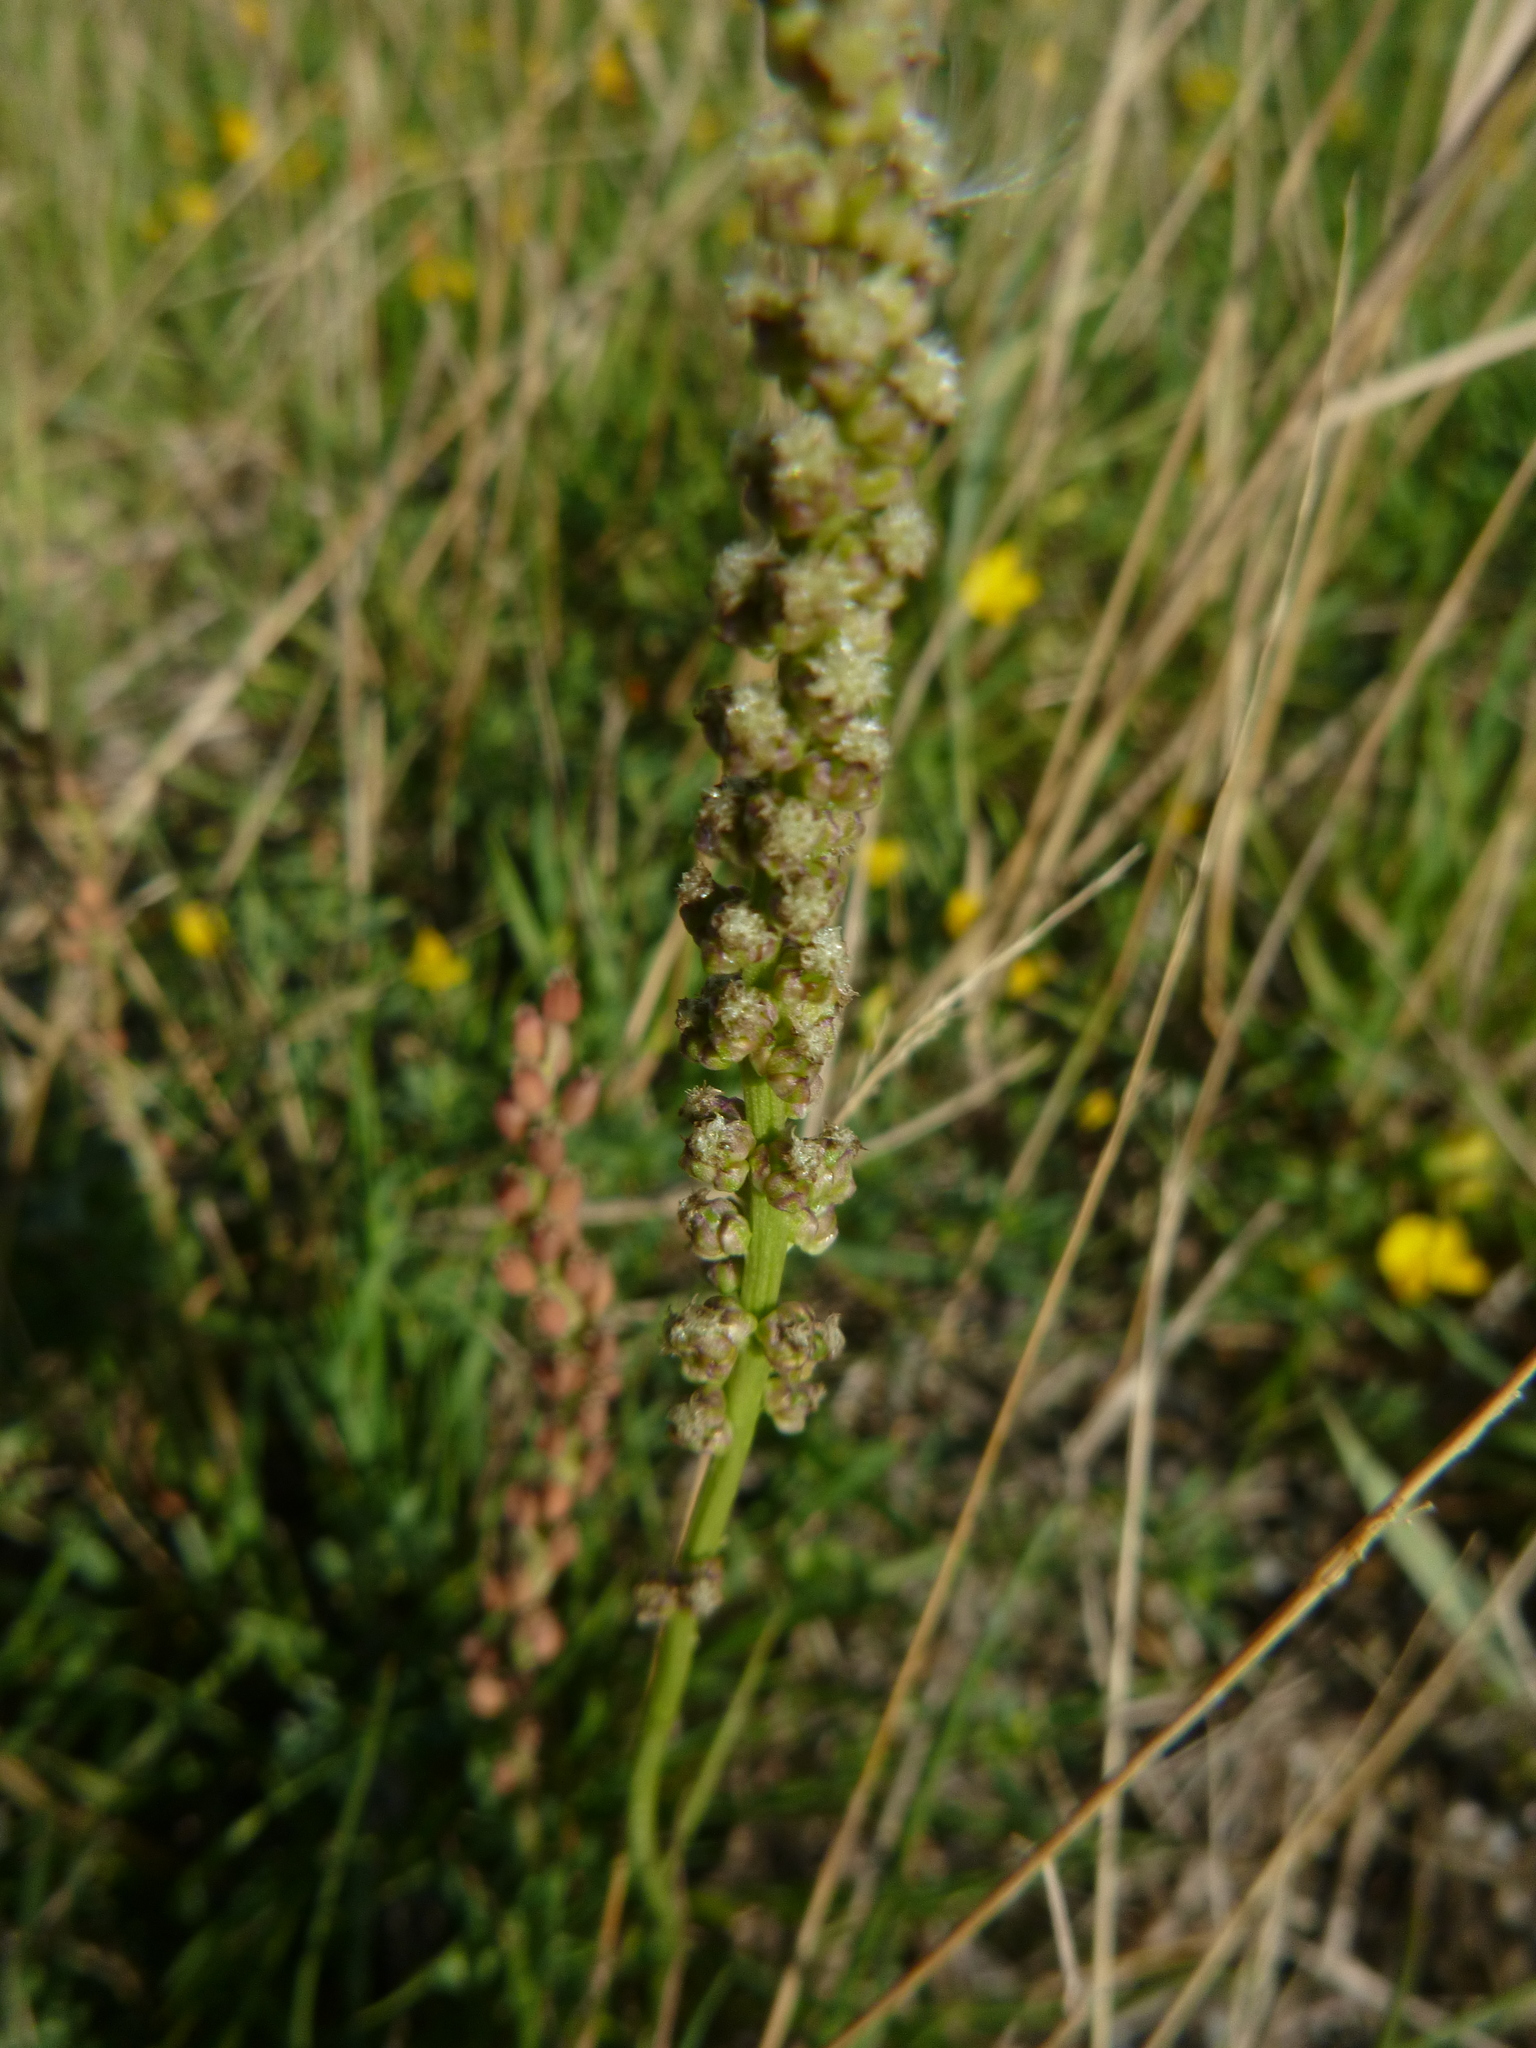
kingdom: Plantae
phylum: Tracheophyta
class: Liliopsida
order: Alismatales
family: Juncaginaceae
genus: Triglochin
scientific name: Triglochin maritima
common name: Sea arrowgrass
